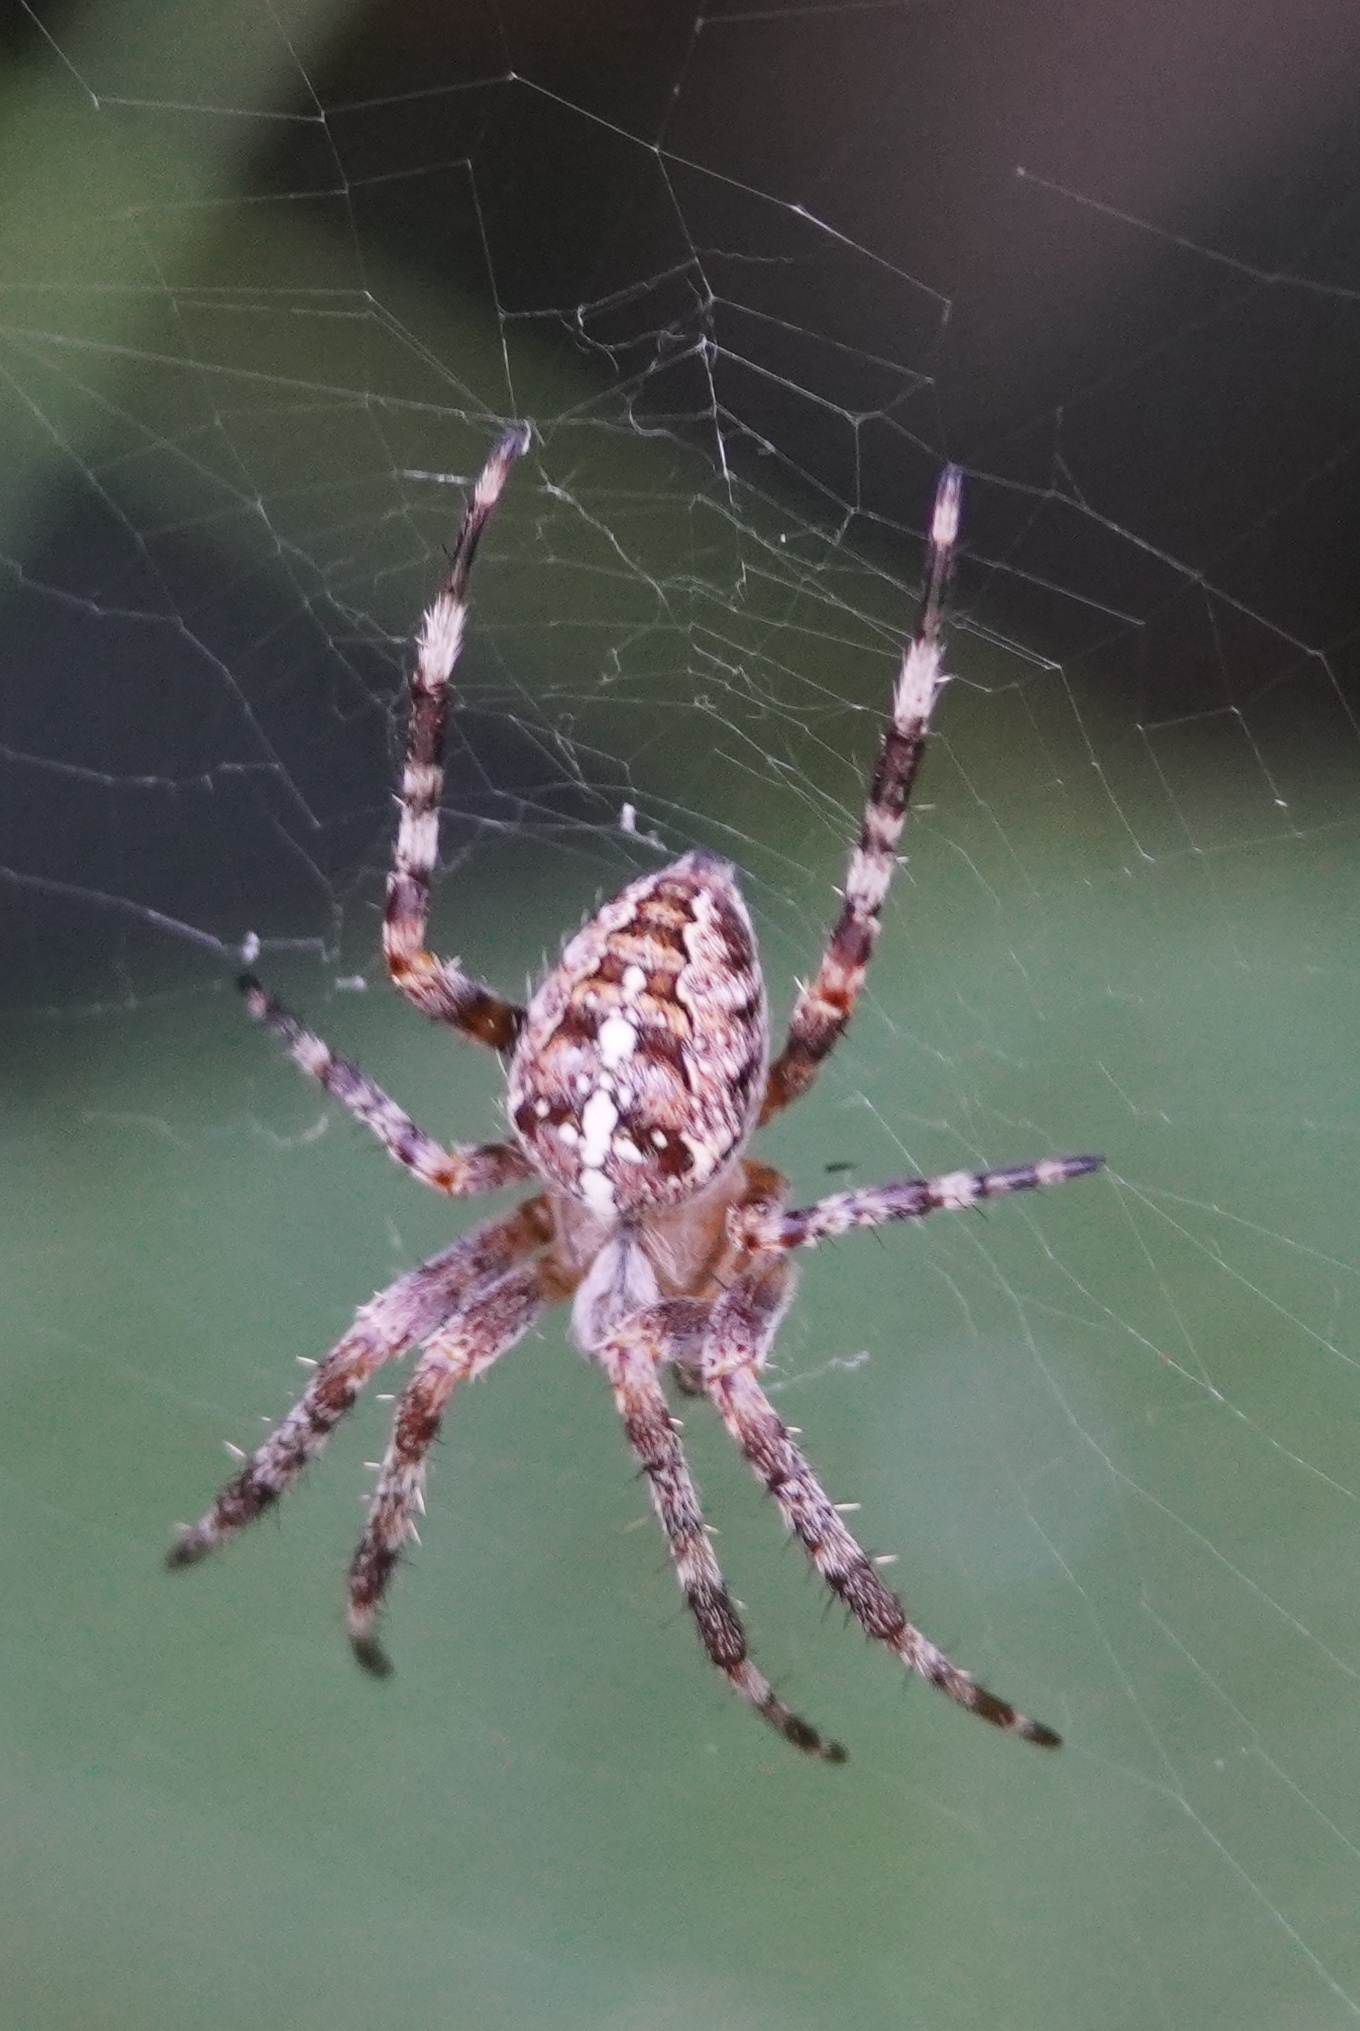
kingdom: Animalia
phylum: Arthropoda
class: Arachnida
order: Araneae
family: Araneidae
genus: Araneus
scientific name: Araneus diadematus
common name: Cross orbweaver
